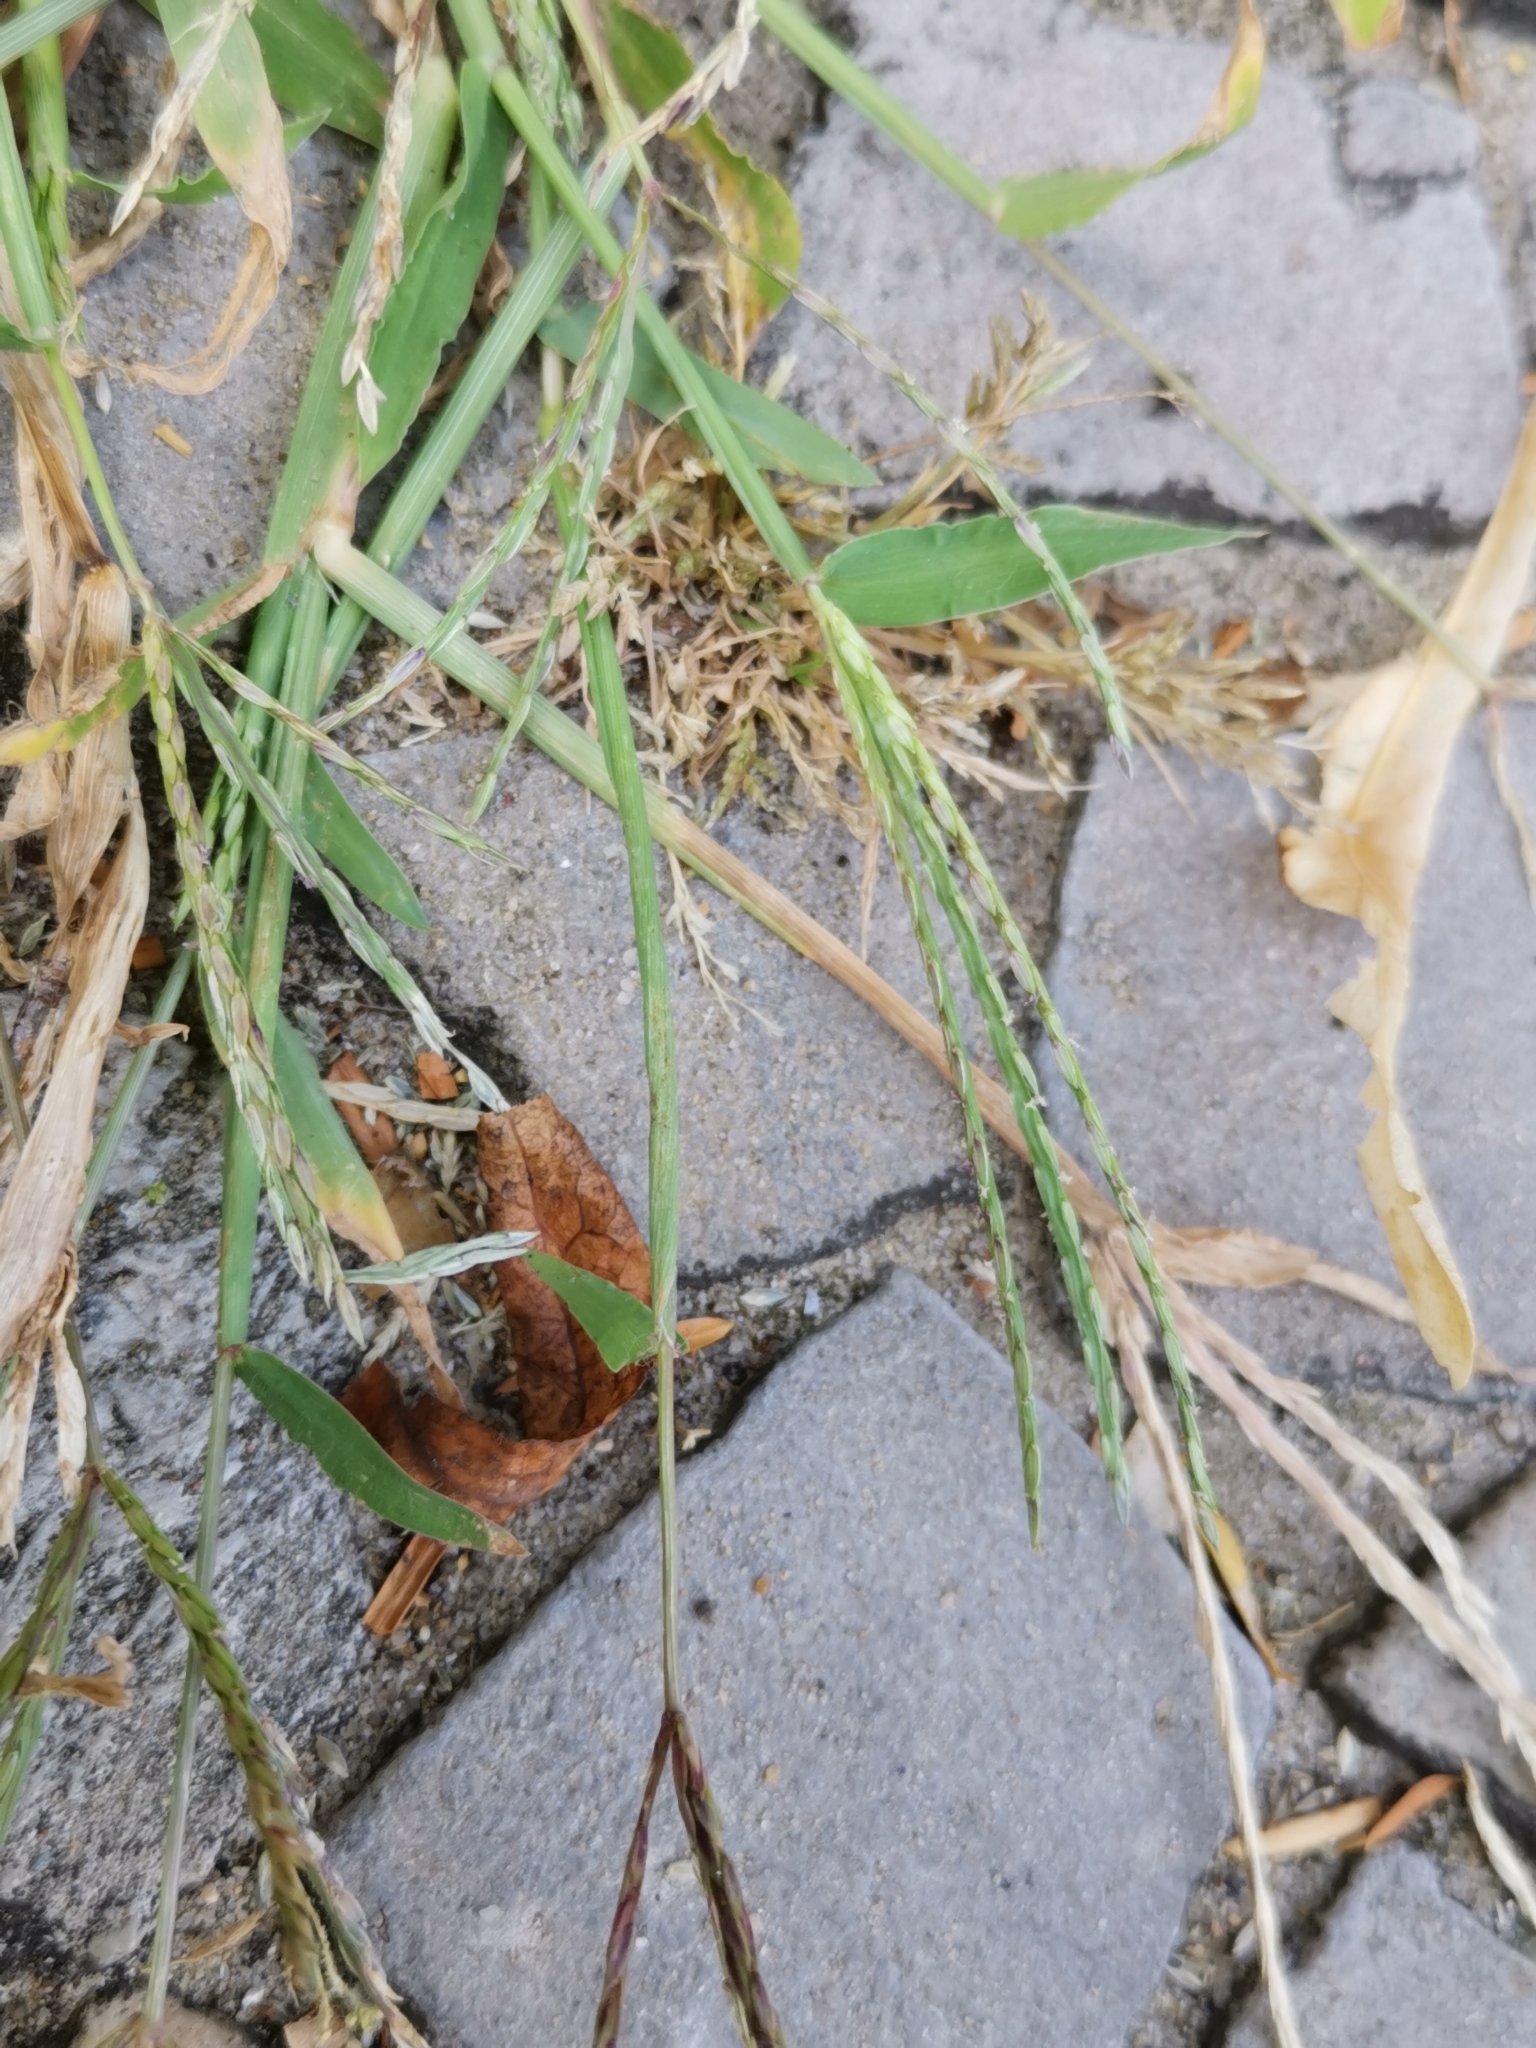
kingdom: Plantae
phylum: Tracheophyta
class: Liliopsida
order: Poales
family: Poaceae
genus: Digitaria
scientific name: Digitaria sanguinalis
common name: Hairy crabgrass
